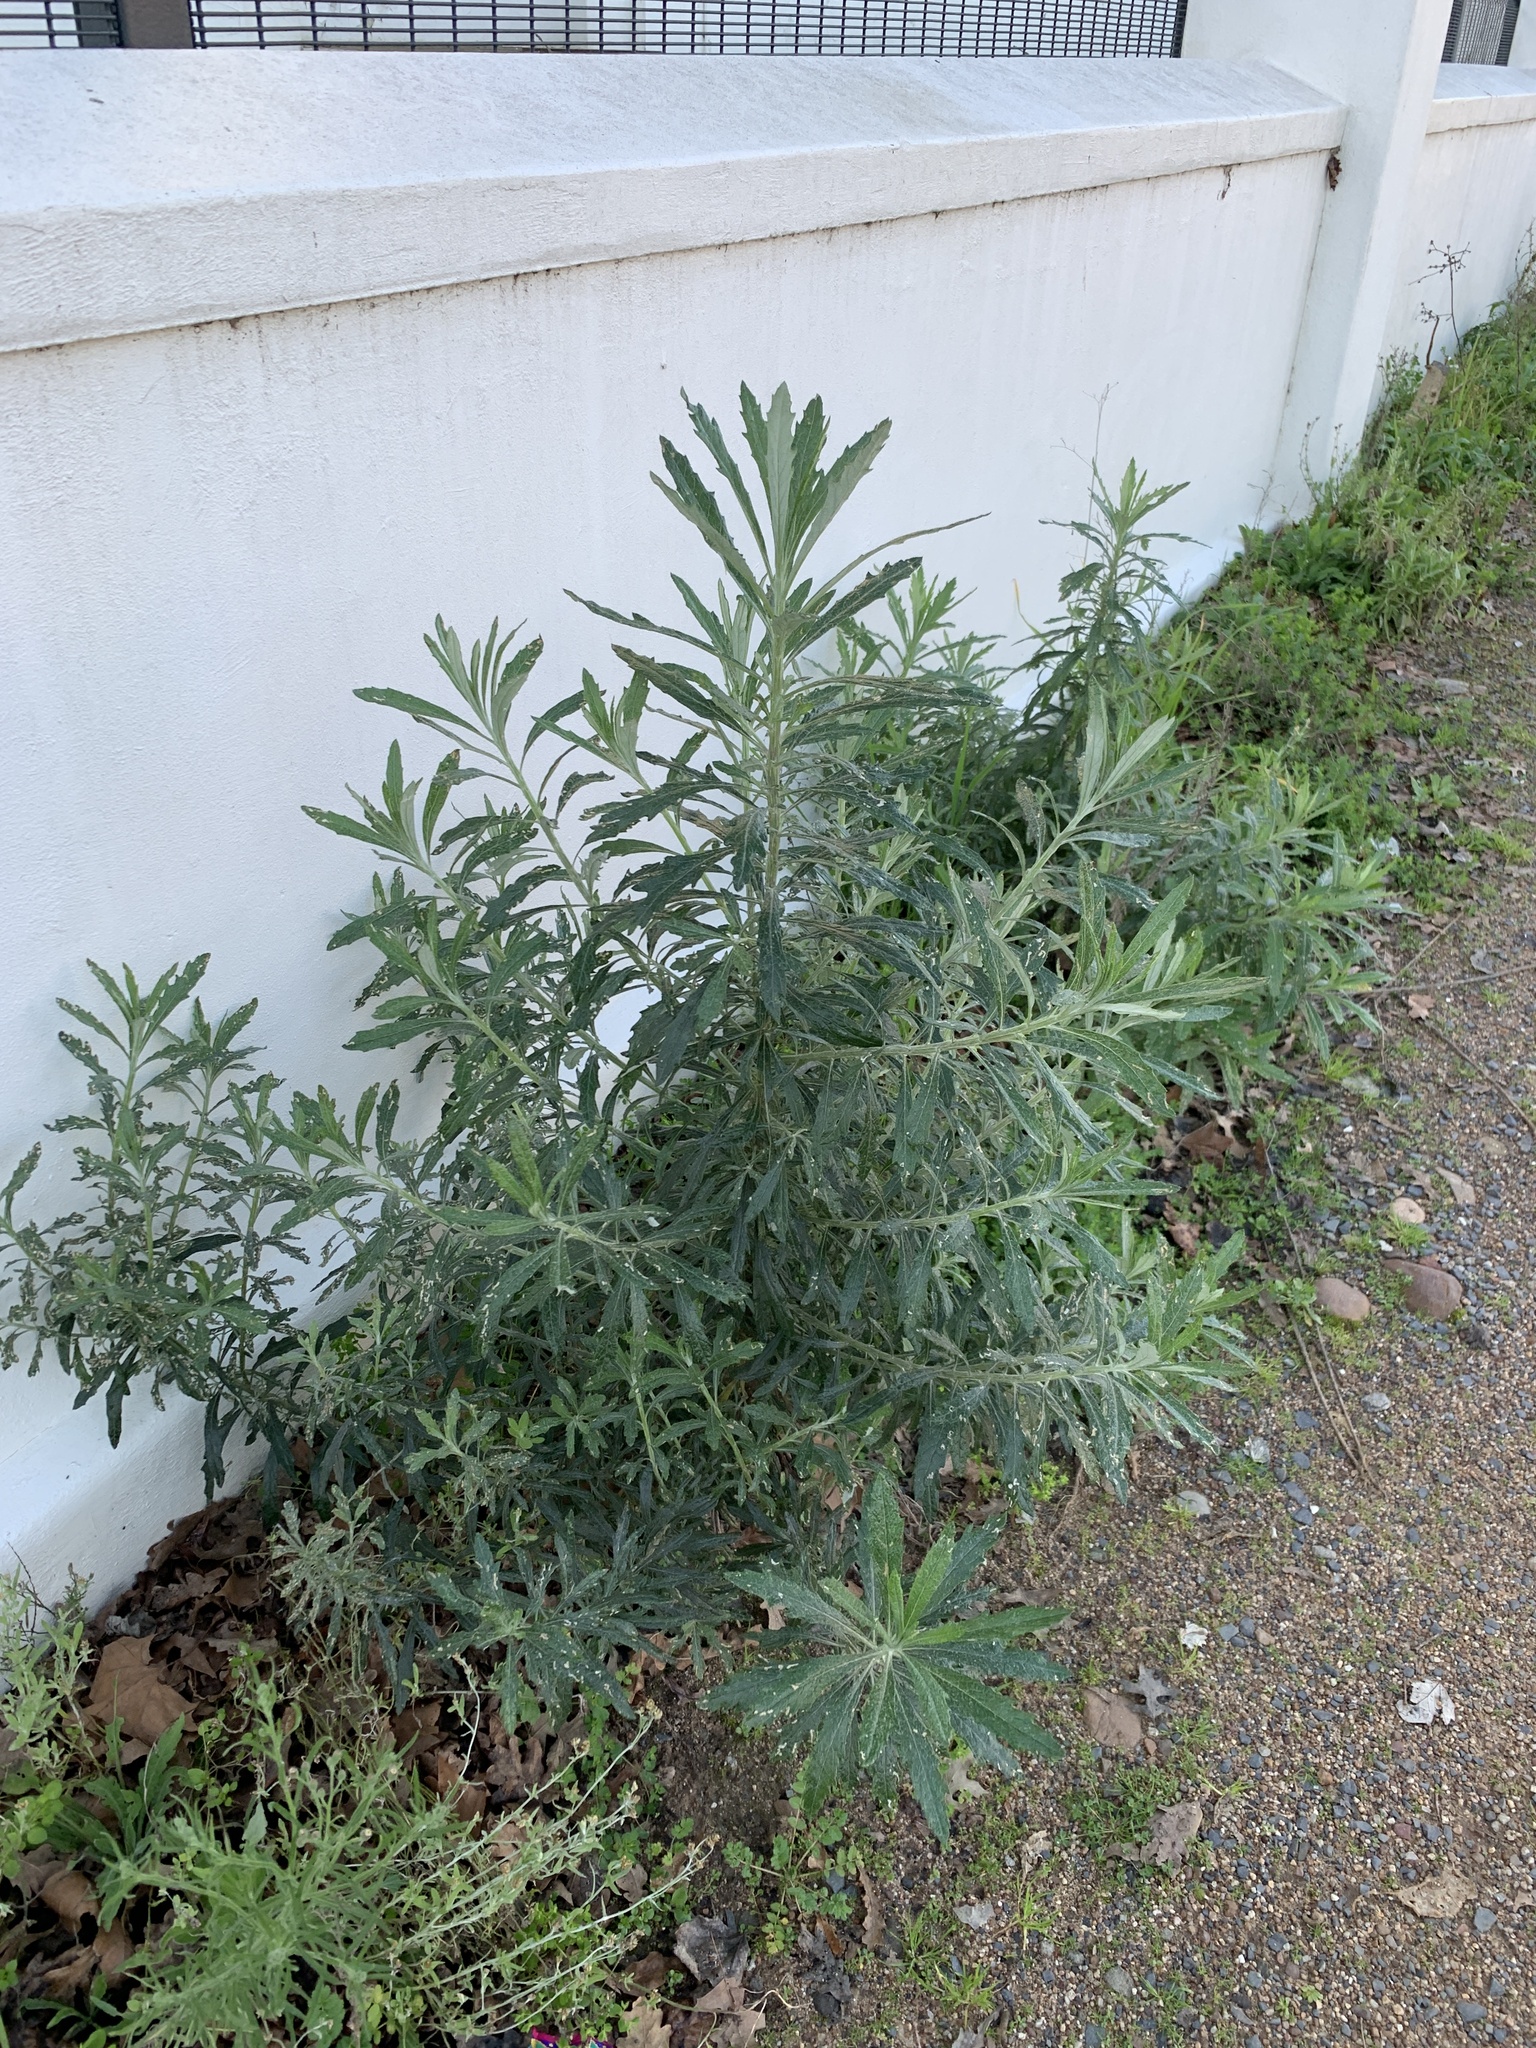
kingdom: Plantae
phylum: Tracheophyta
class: Magnoliopsida
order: Asterales
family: Asteraceae
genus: Senecio
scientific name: Senecio pterophorus
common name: Shoddy ragwort
